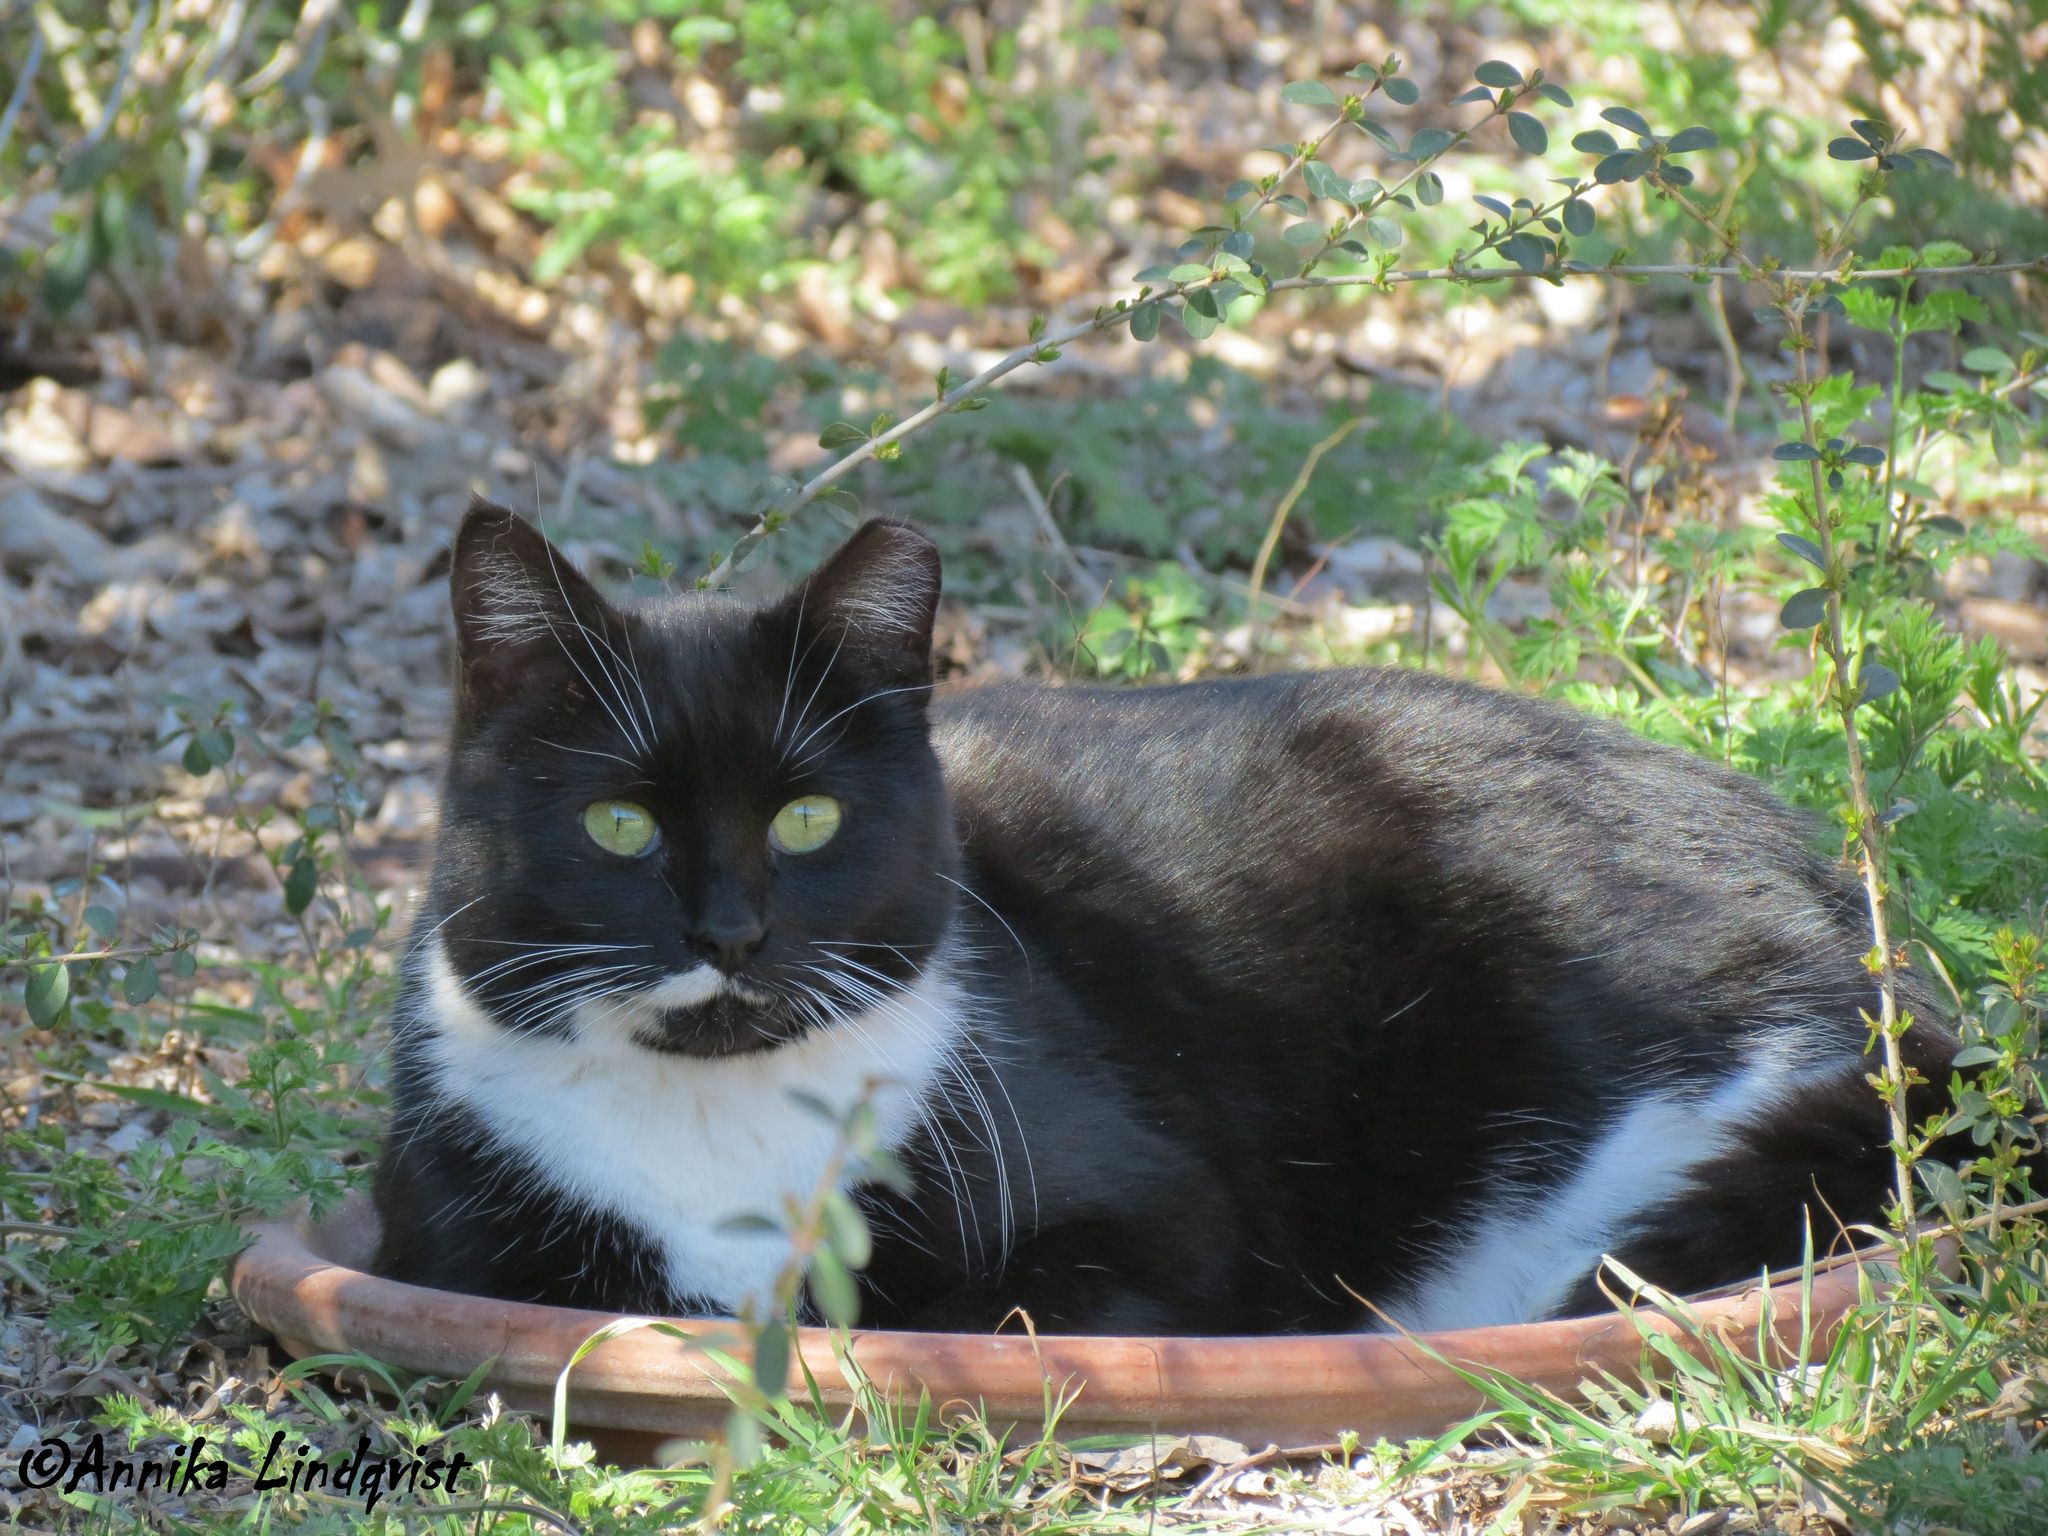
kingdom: Animalia
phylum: Chordata
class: Mammalia
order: Carnivora
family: Felidae
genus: Felis
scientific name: Felis catus
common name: Domestic cat
